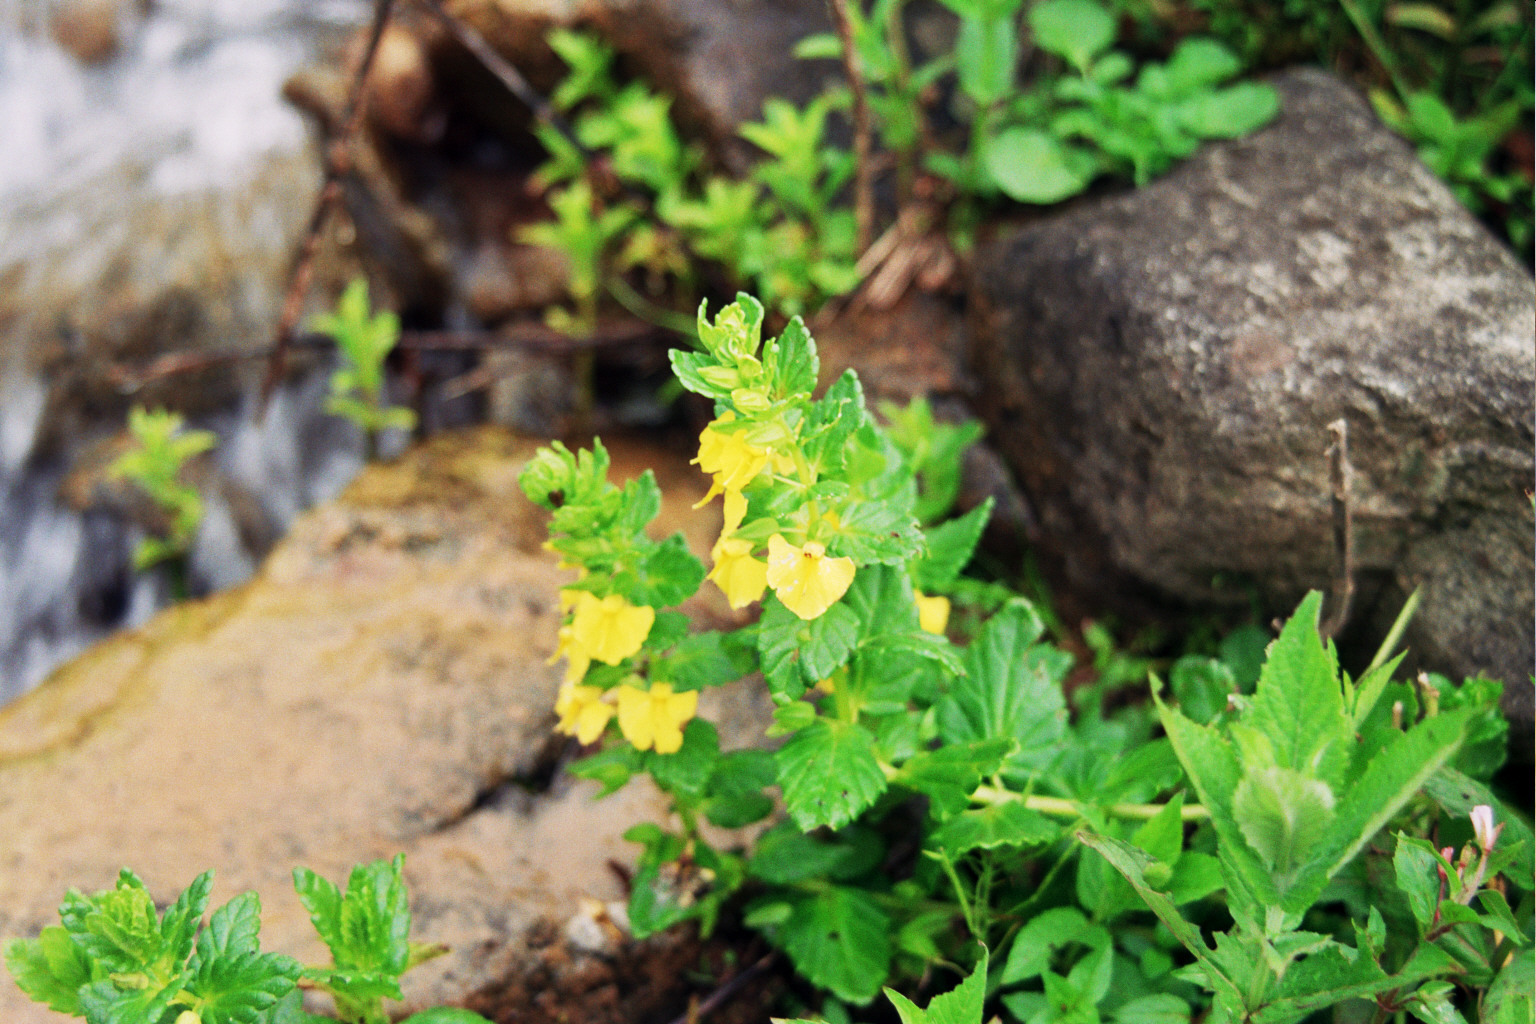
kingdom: Plantae
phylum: Tracheophyta
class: Magnoliopsida
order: Lamiales
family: Orobanchaceae
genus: Rhynchocorys
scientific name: Rhynchocorys elephas
